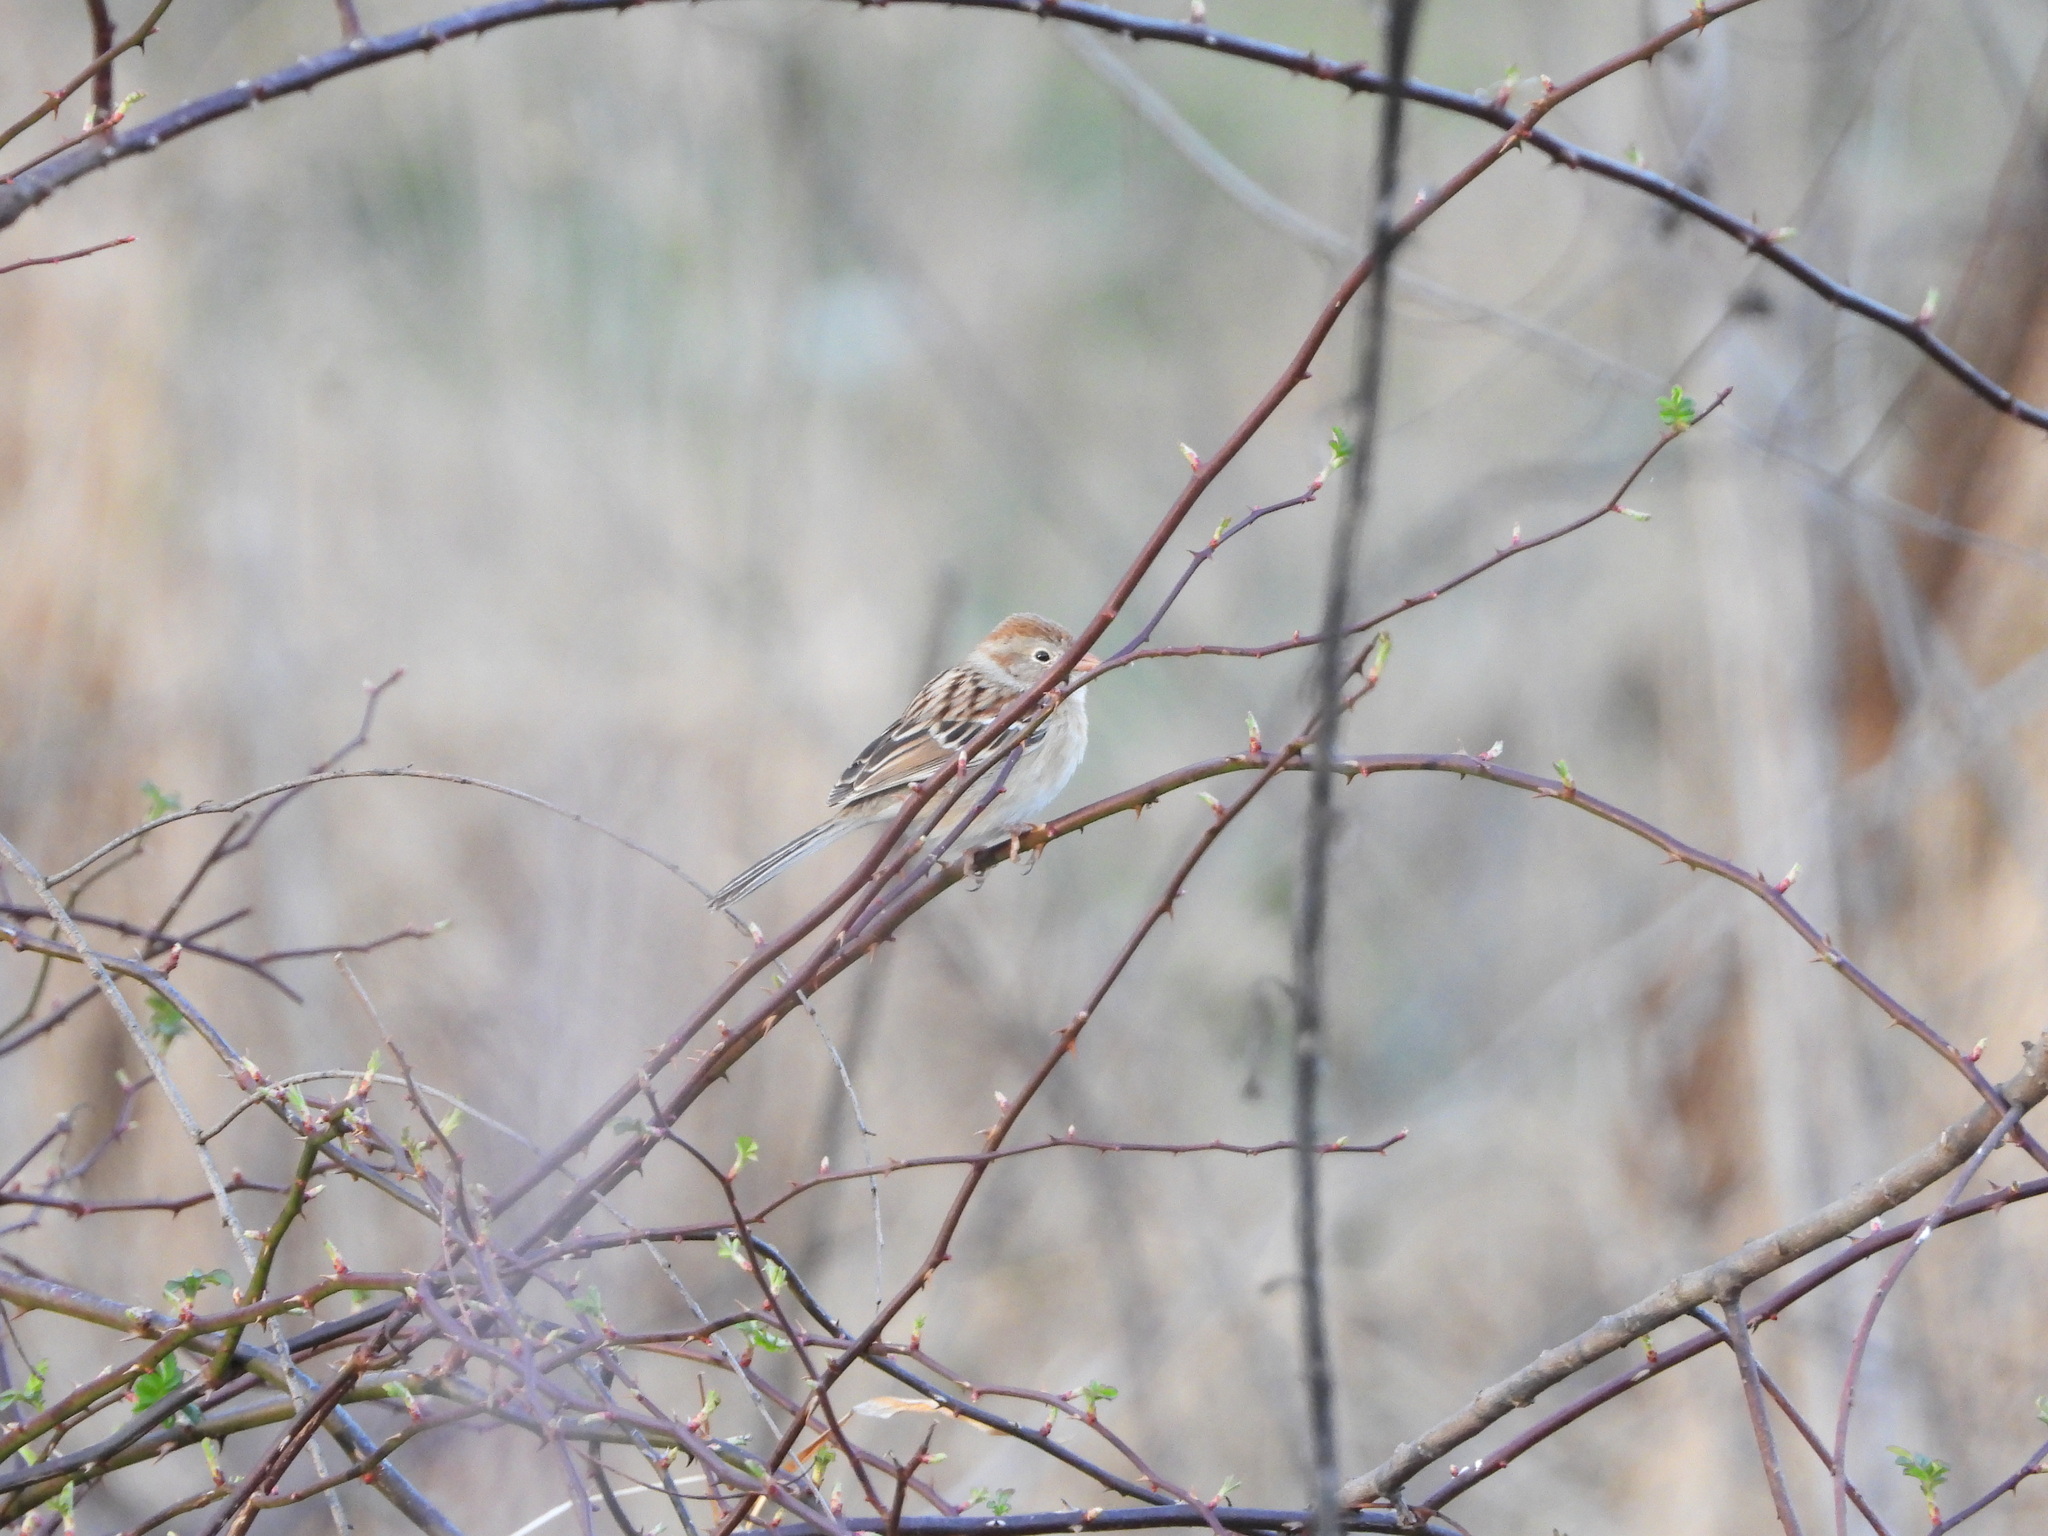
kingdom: Animalia
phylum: Chordata
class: Aves
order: Passeriformes
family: Passerellidae
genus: Spizella
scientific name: Spizella pusilla
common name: Field sparrow
